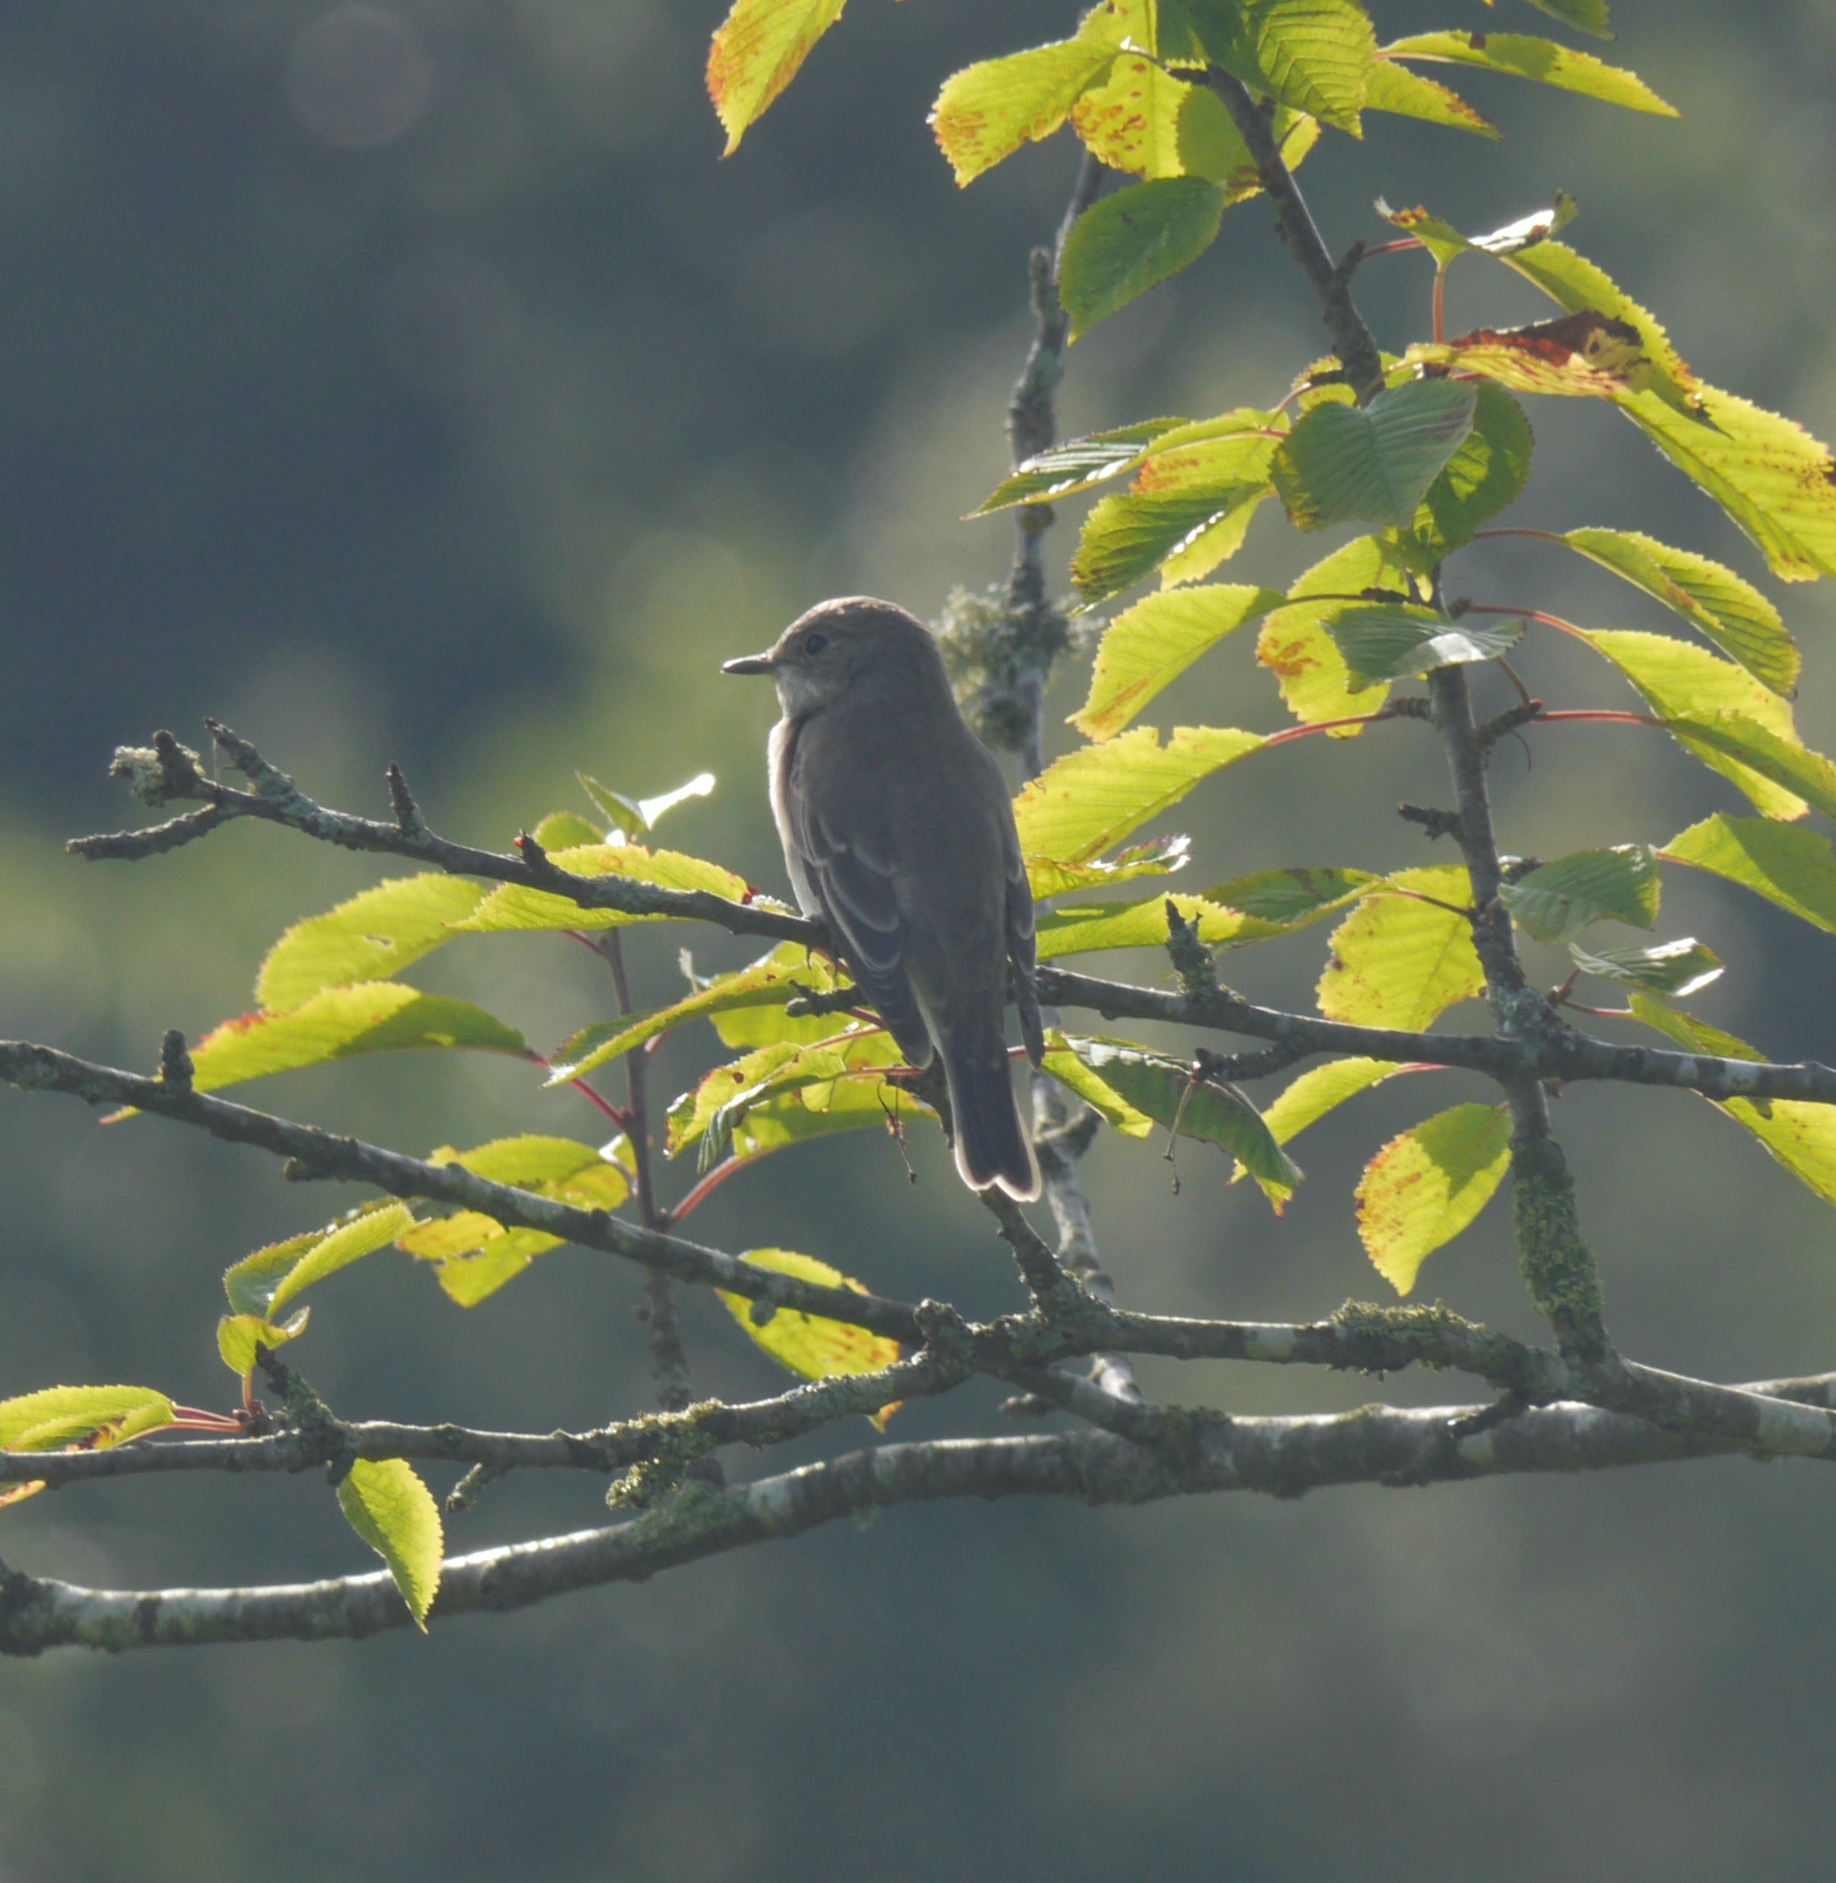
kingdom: Animalia
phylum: Chordata
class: Aves
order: Passeriformes
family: Muscicapidae
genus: Muscicapa
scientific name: Muscicapa striata
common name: Spotted flycatcher
